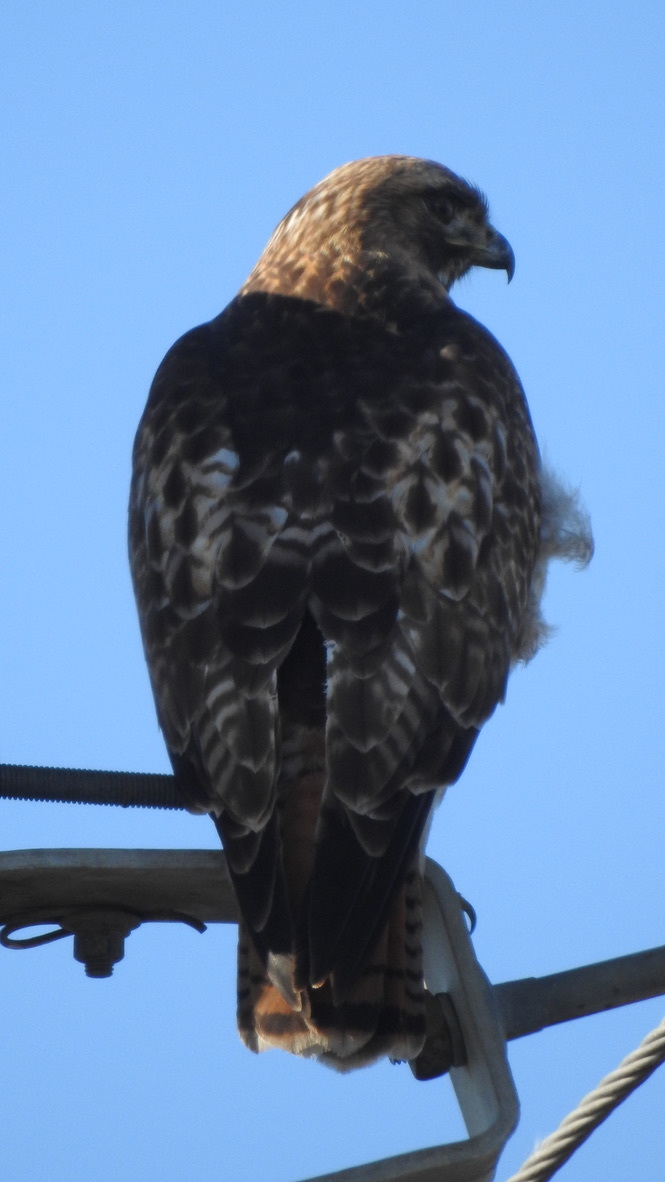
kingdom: Animalia
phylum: Chordata
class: Aves
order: Accipitriformes
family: Accipitridae
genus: Buteo
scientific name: Buteo jamaicensis
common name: Red-tailed hawk
